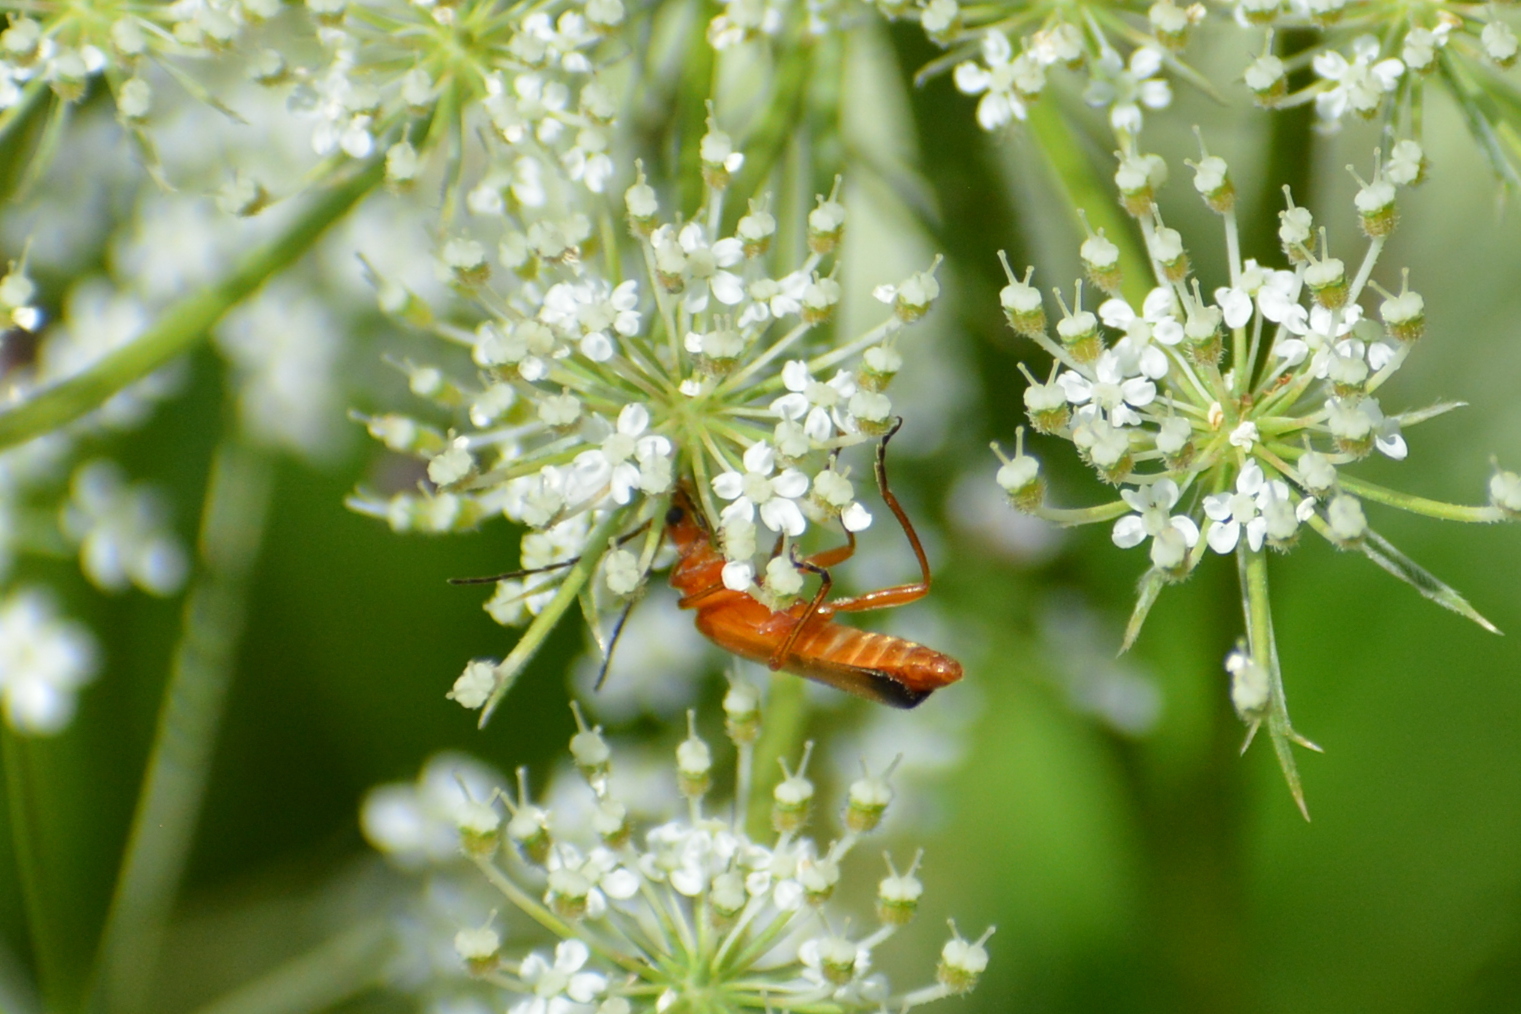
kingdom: Animalia
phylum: Arthropoda
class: Insecta
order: Coleoptera
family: Cantharidae
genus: Rhagonycha
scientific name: Rhagonycha fulva
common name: Common red soldier beetle
